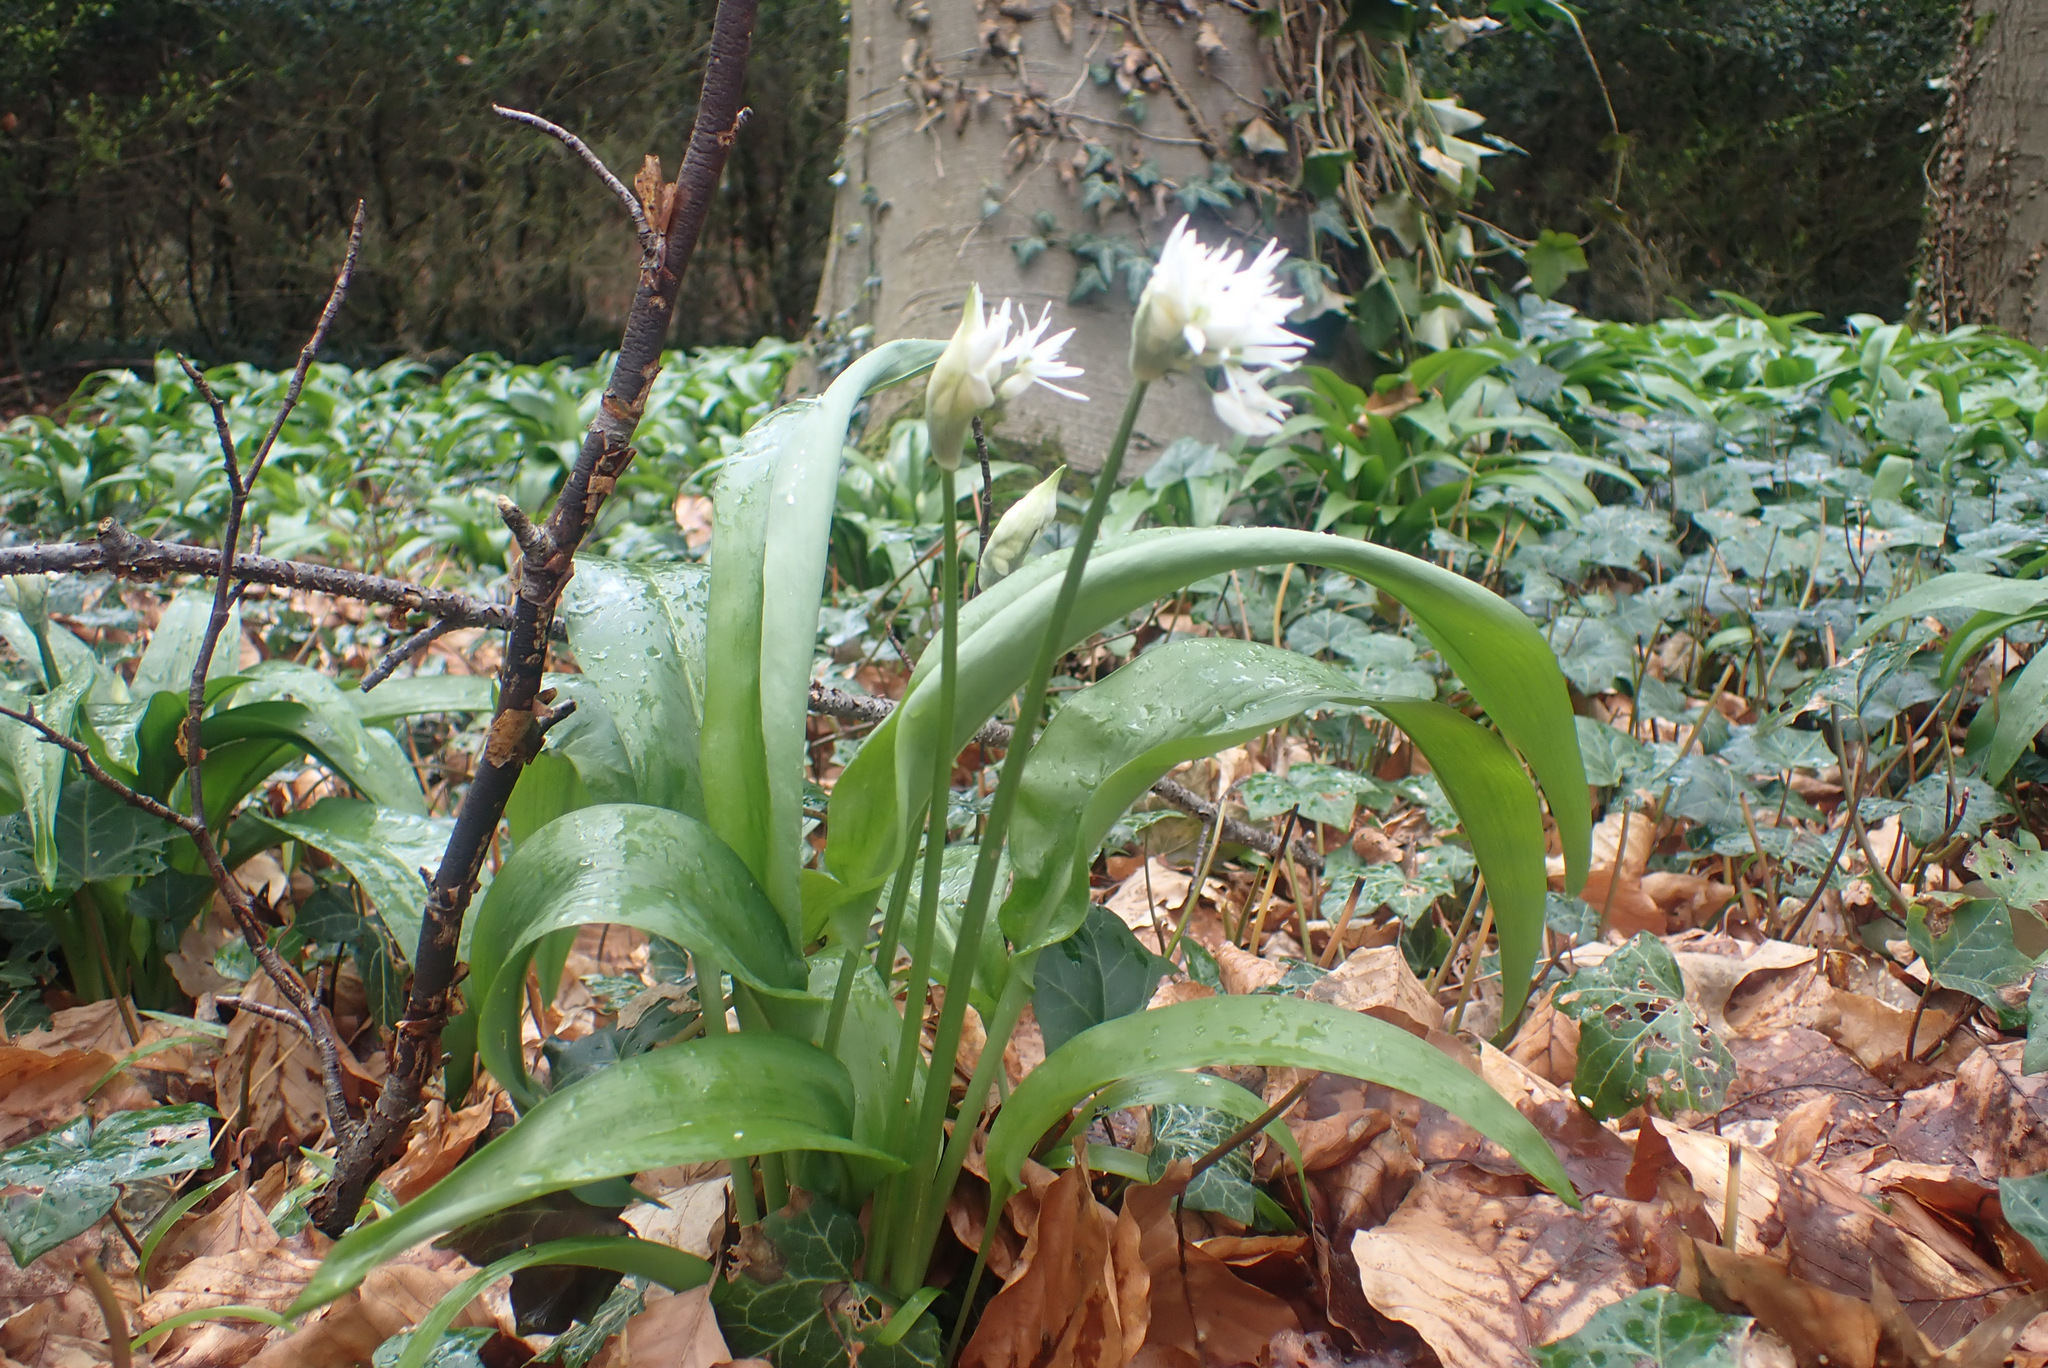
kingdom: Plantae
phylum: Tracheophyta
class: Liliopsida
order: Asparagales
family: Amaryllidaceae
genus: Allium
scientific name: Allium ursinum
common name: Ramsons
